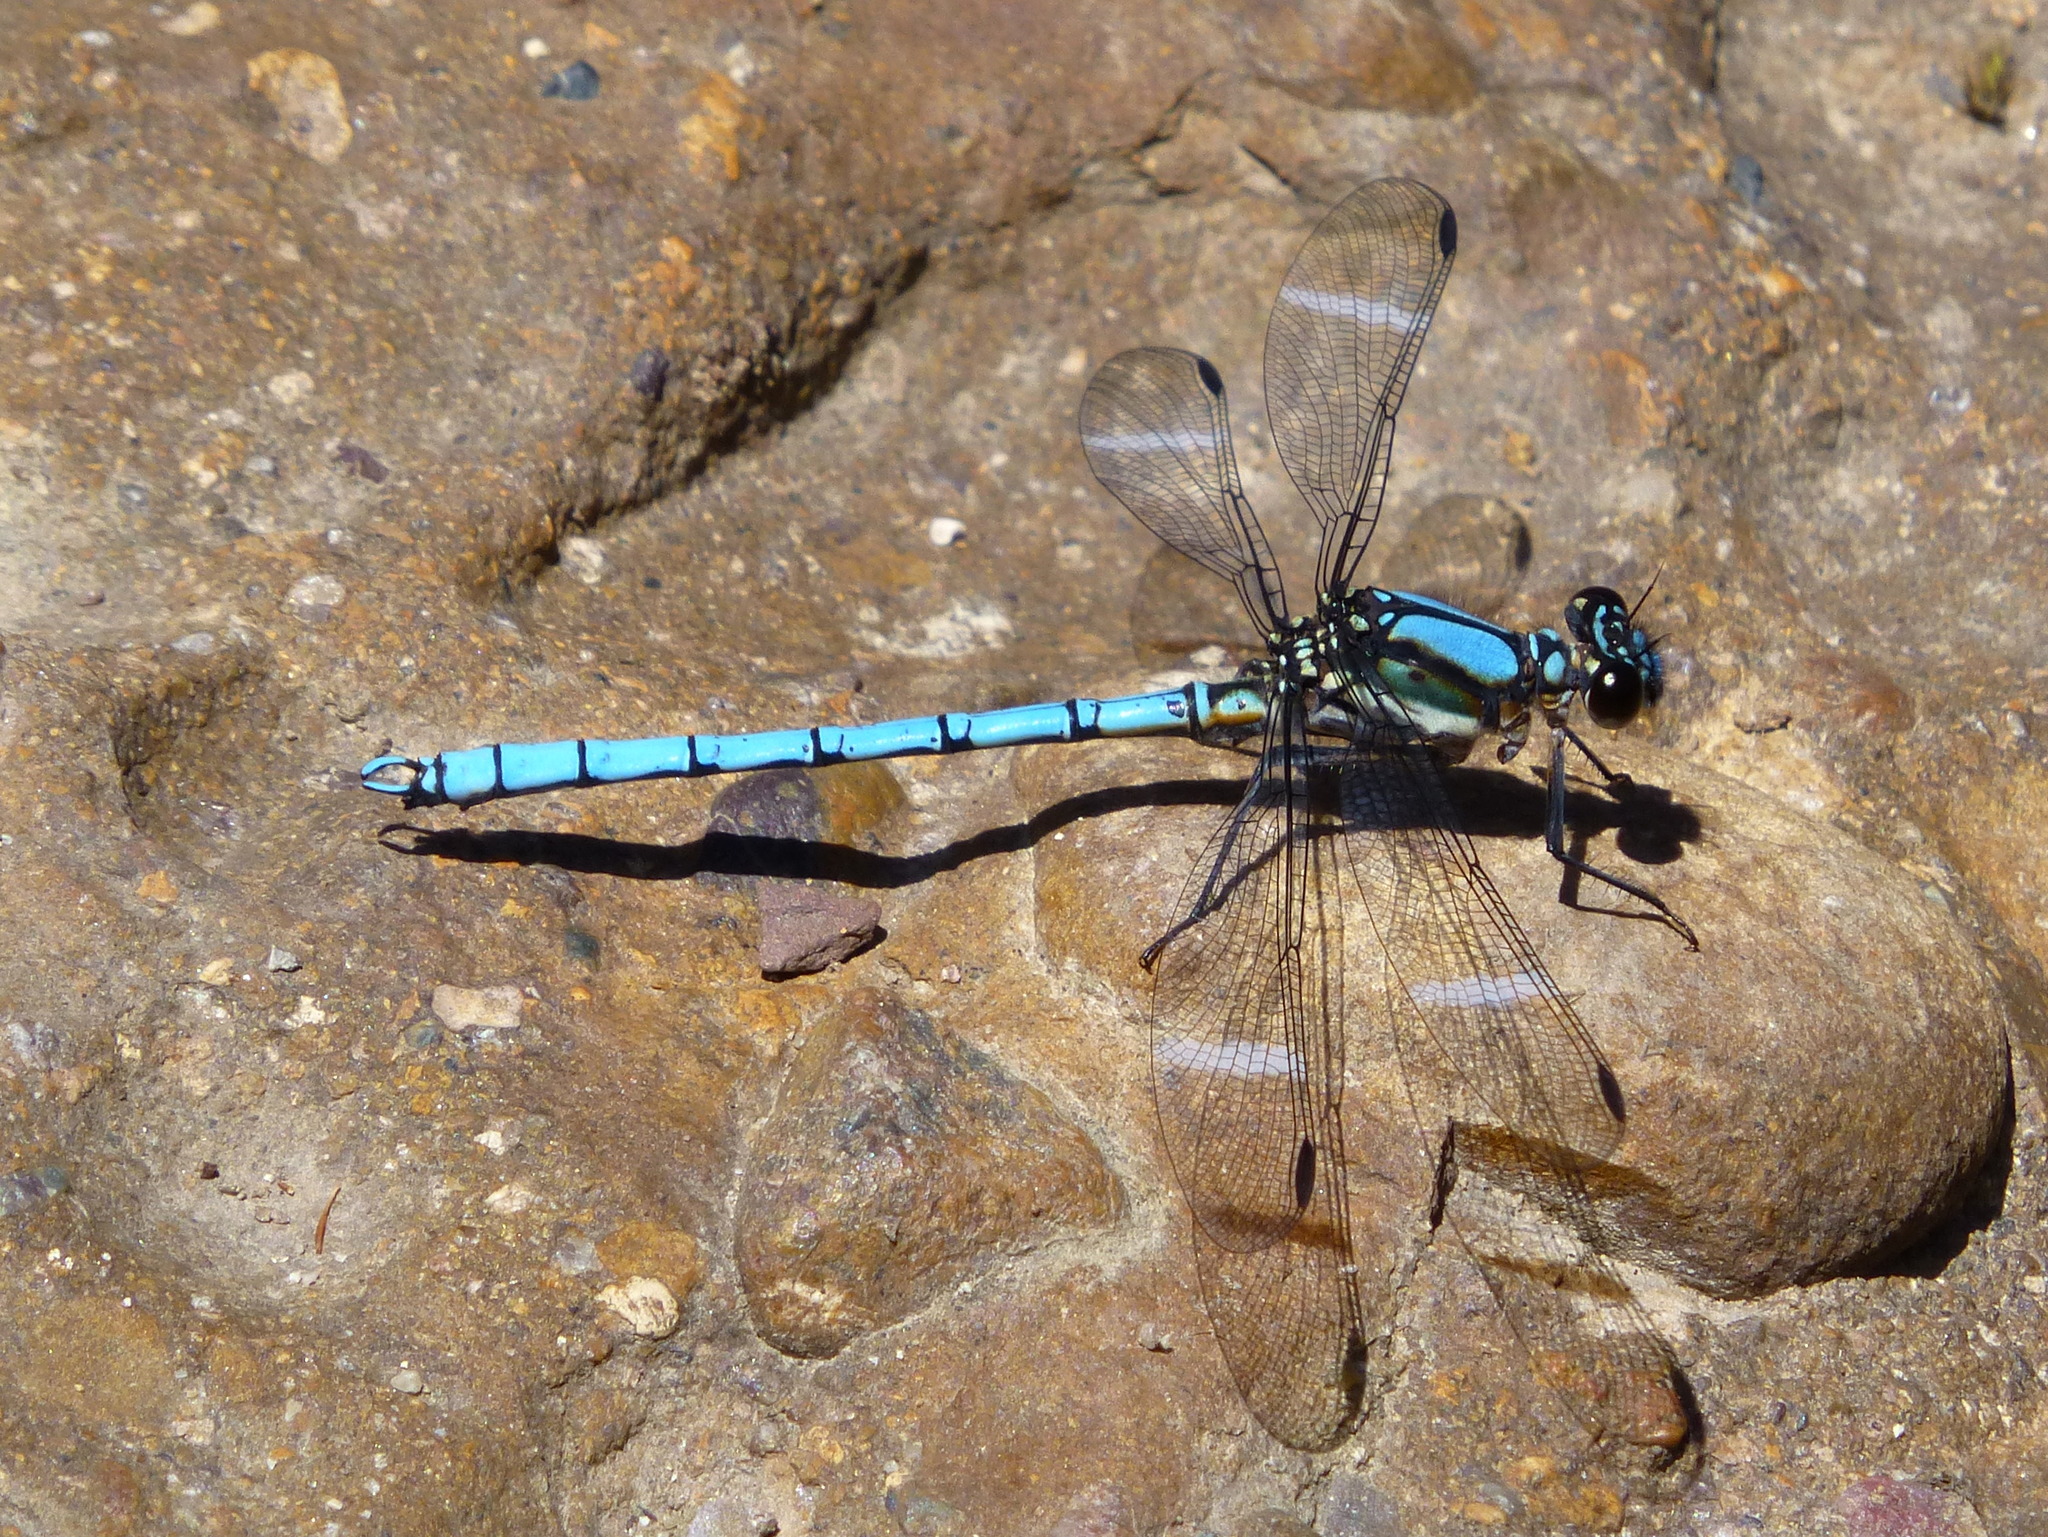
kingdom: Animalia
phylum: Arthropoda
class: Insecta
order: Odonata
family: Lestoideidae
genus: Diphlebia
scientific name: Diphlebia lestoides
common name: Whitewater rockmaster
